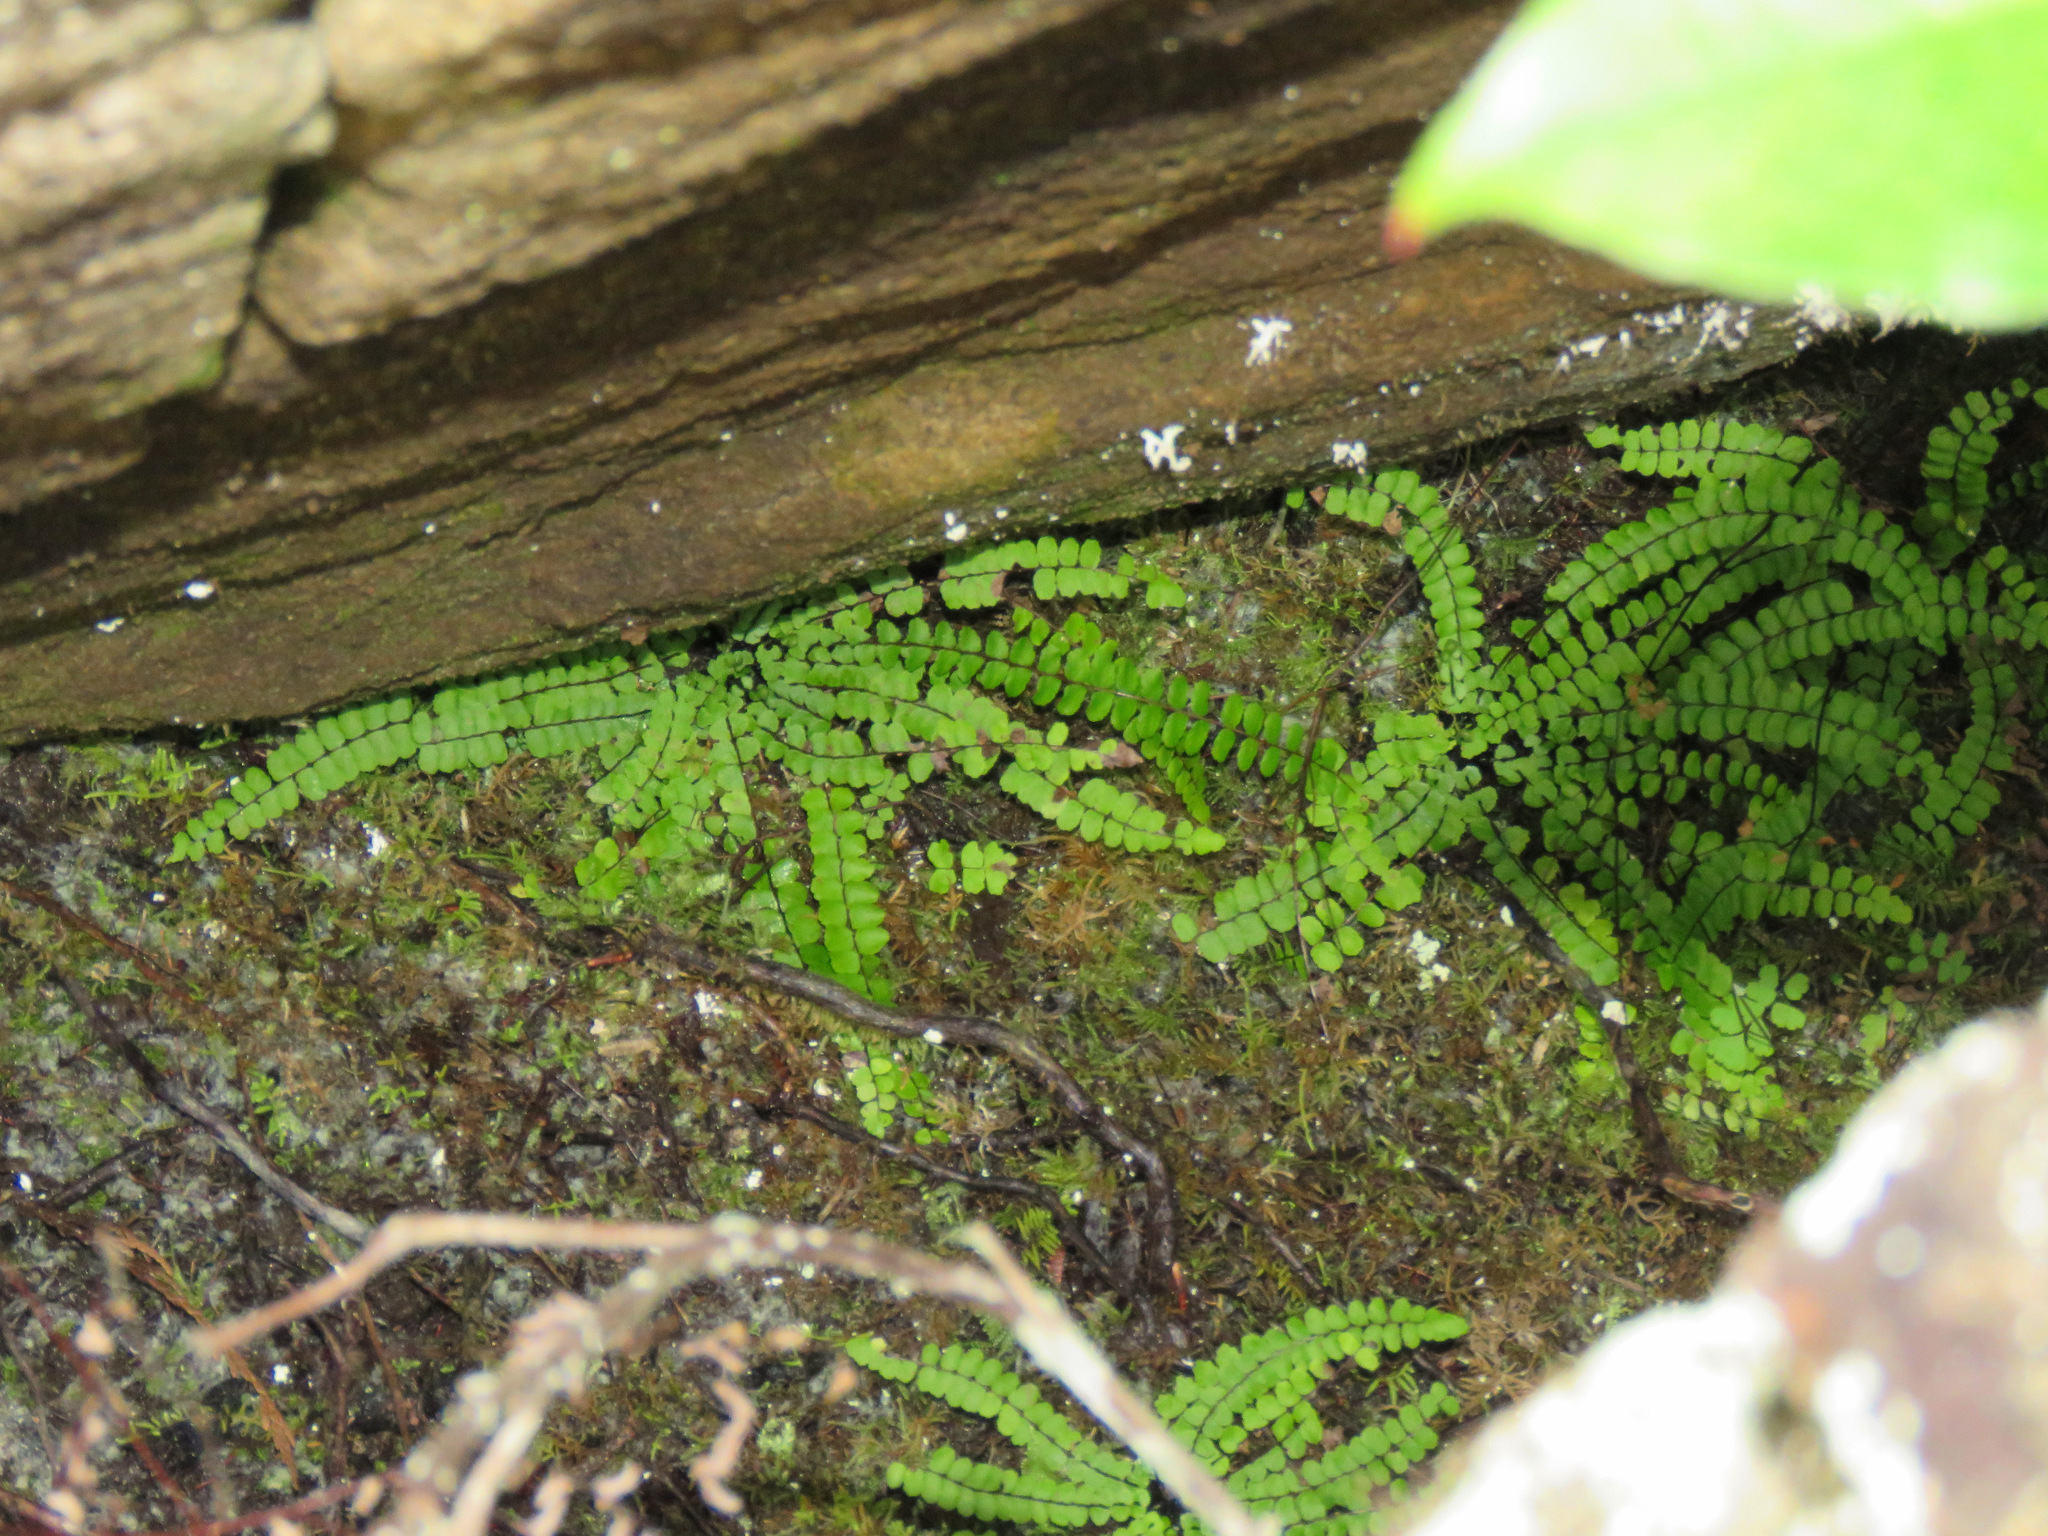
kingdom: Plantae
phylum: Tracheophyta
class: Polypodiopsida
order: Polypodiales
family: Aspleniaceae
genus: Asplenium
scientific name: Asplenium trichomanes
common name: Maidenhair spleenwort
